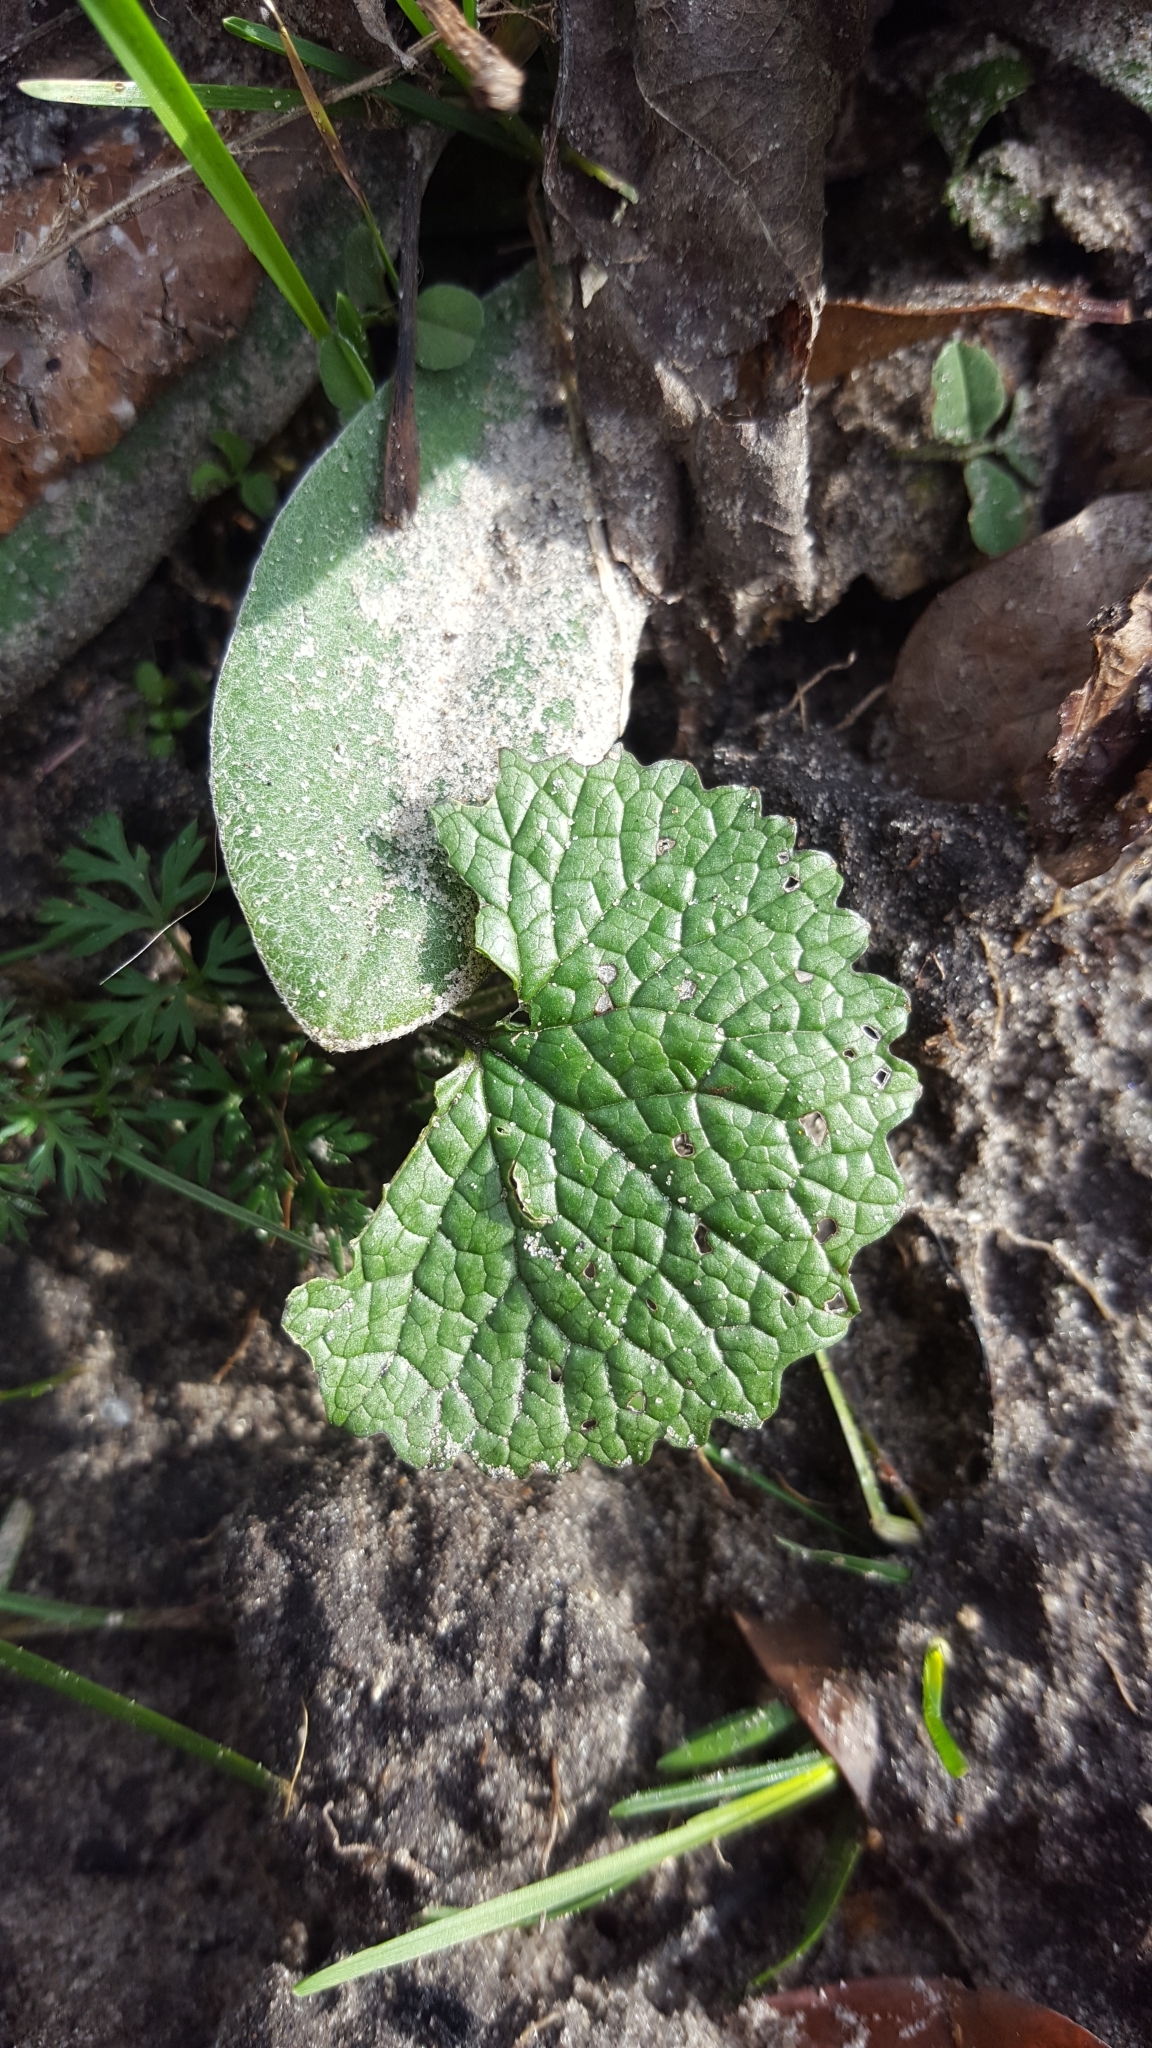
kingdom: Plantae
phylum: Tracheophyta
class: Magnoliopsida
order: Brassicales
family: Brassicaceae
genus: Alliaria
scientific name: Alliaria petiolata
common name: Garlic mustard
